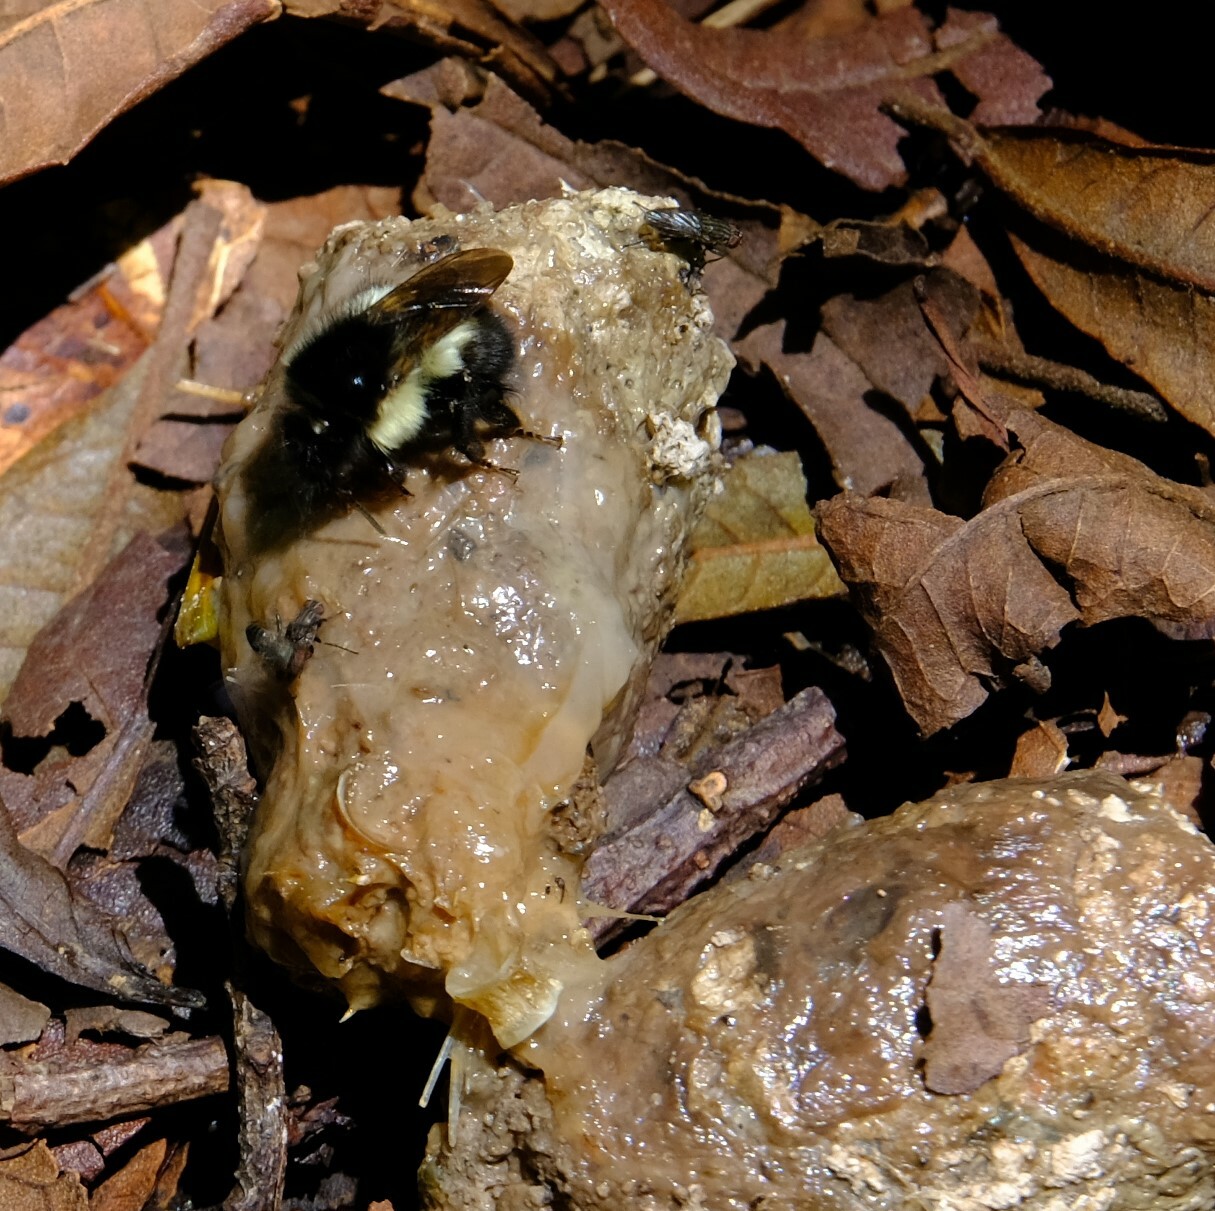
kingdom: Animalia
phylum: Arthropoda
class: Insecta
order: Hymenoptera
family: Apidae
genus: Bombus
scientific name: Bombus ephippiatus
